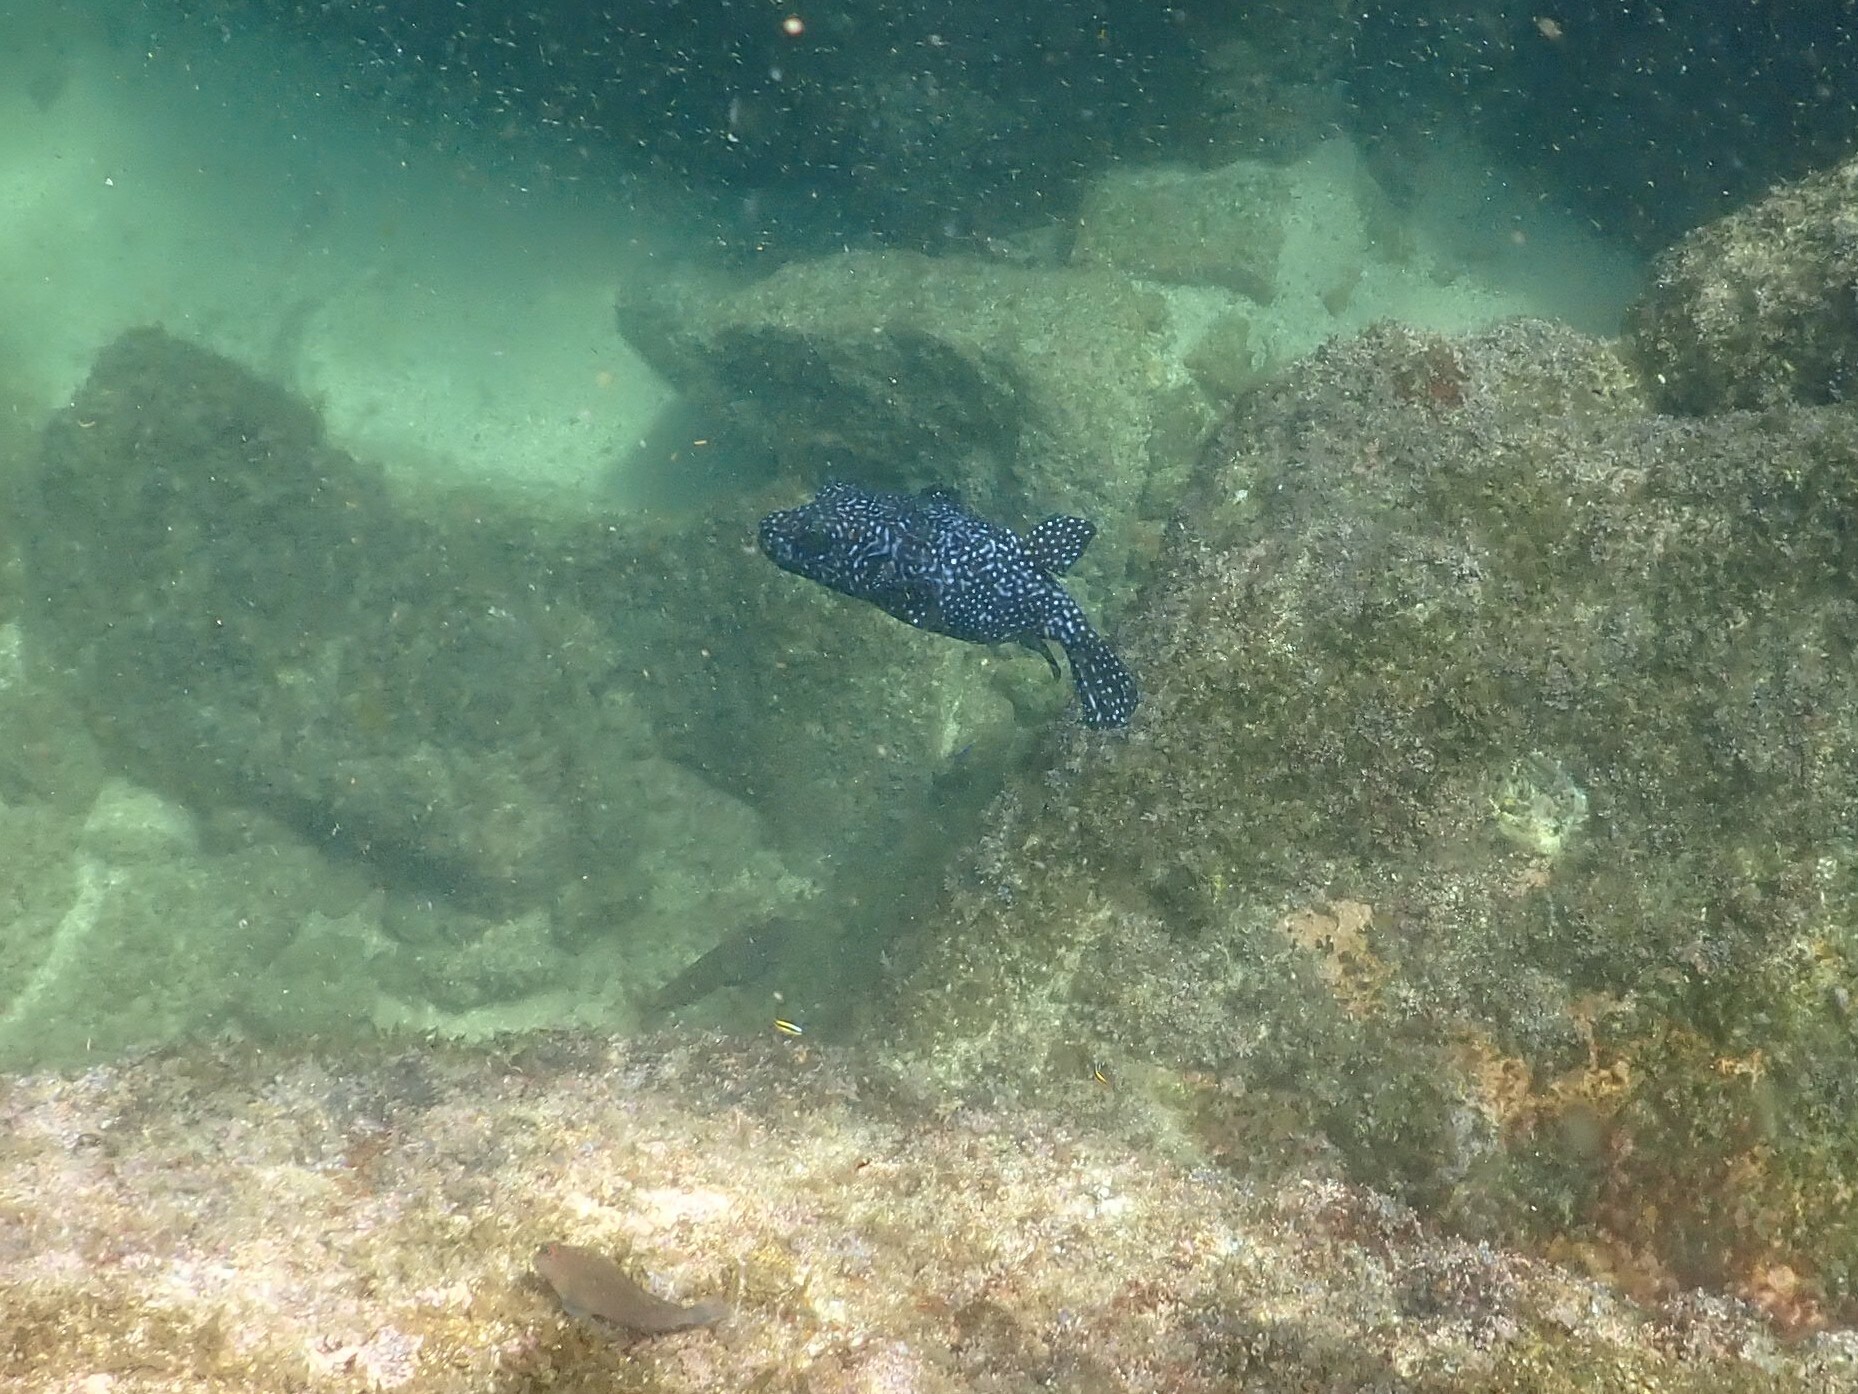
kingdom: Animalia
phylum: Chordata
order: Tetraodontiformes
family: Tetraodontidae
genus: Arothron
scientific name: Arothron meleagris
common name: Guinea-fowl pufferfish
